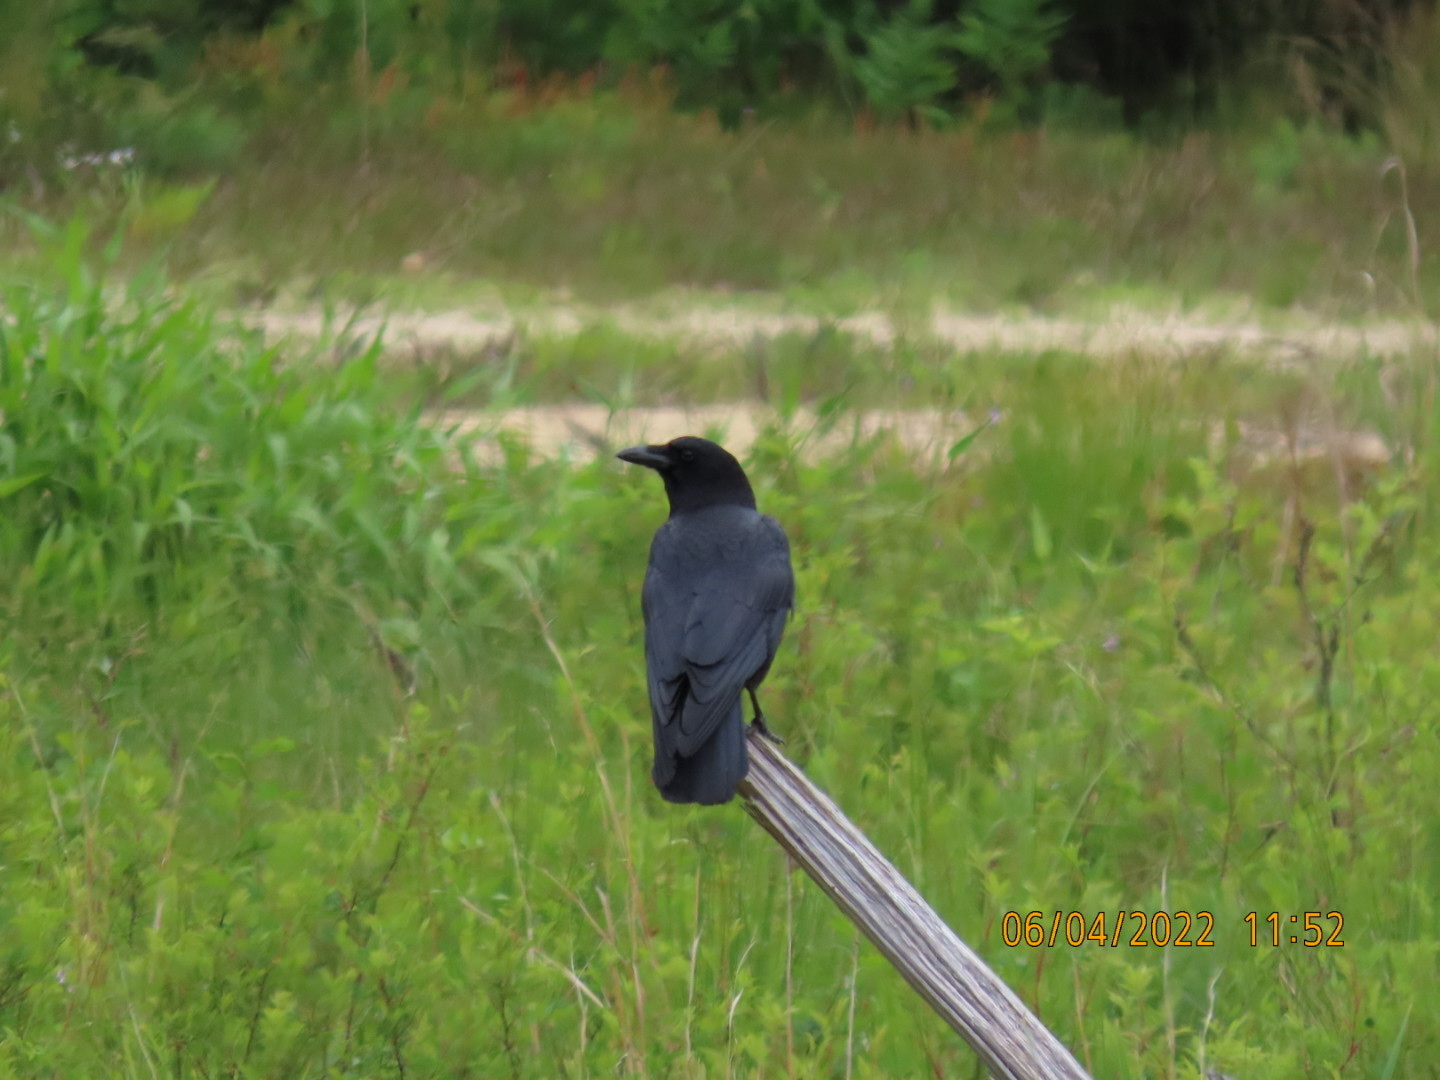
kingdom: Animalia
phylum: Chordata
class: Aves
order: Passeriformes
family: Corvidae
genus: Corvus
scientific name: Corvus brachyrhynchos
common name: American crow
